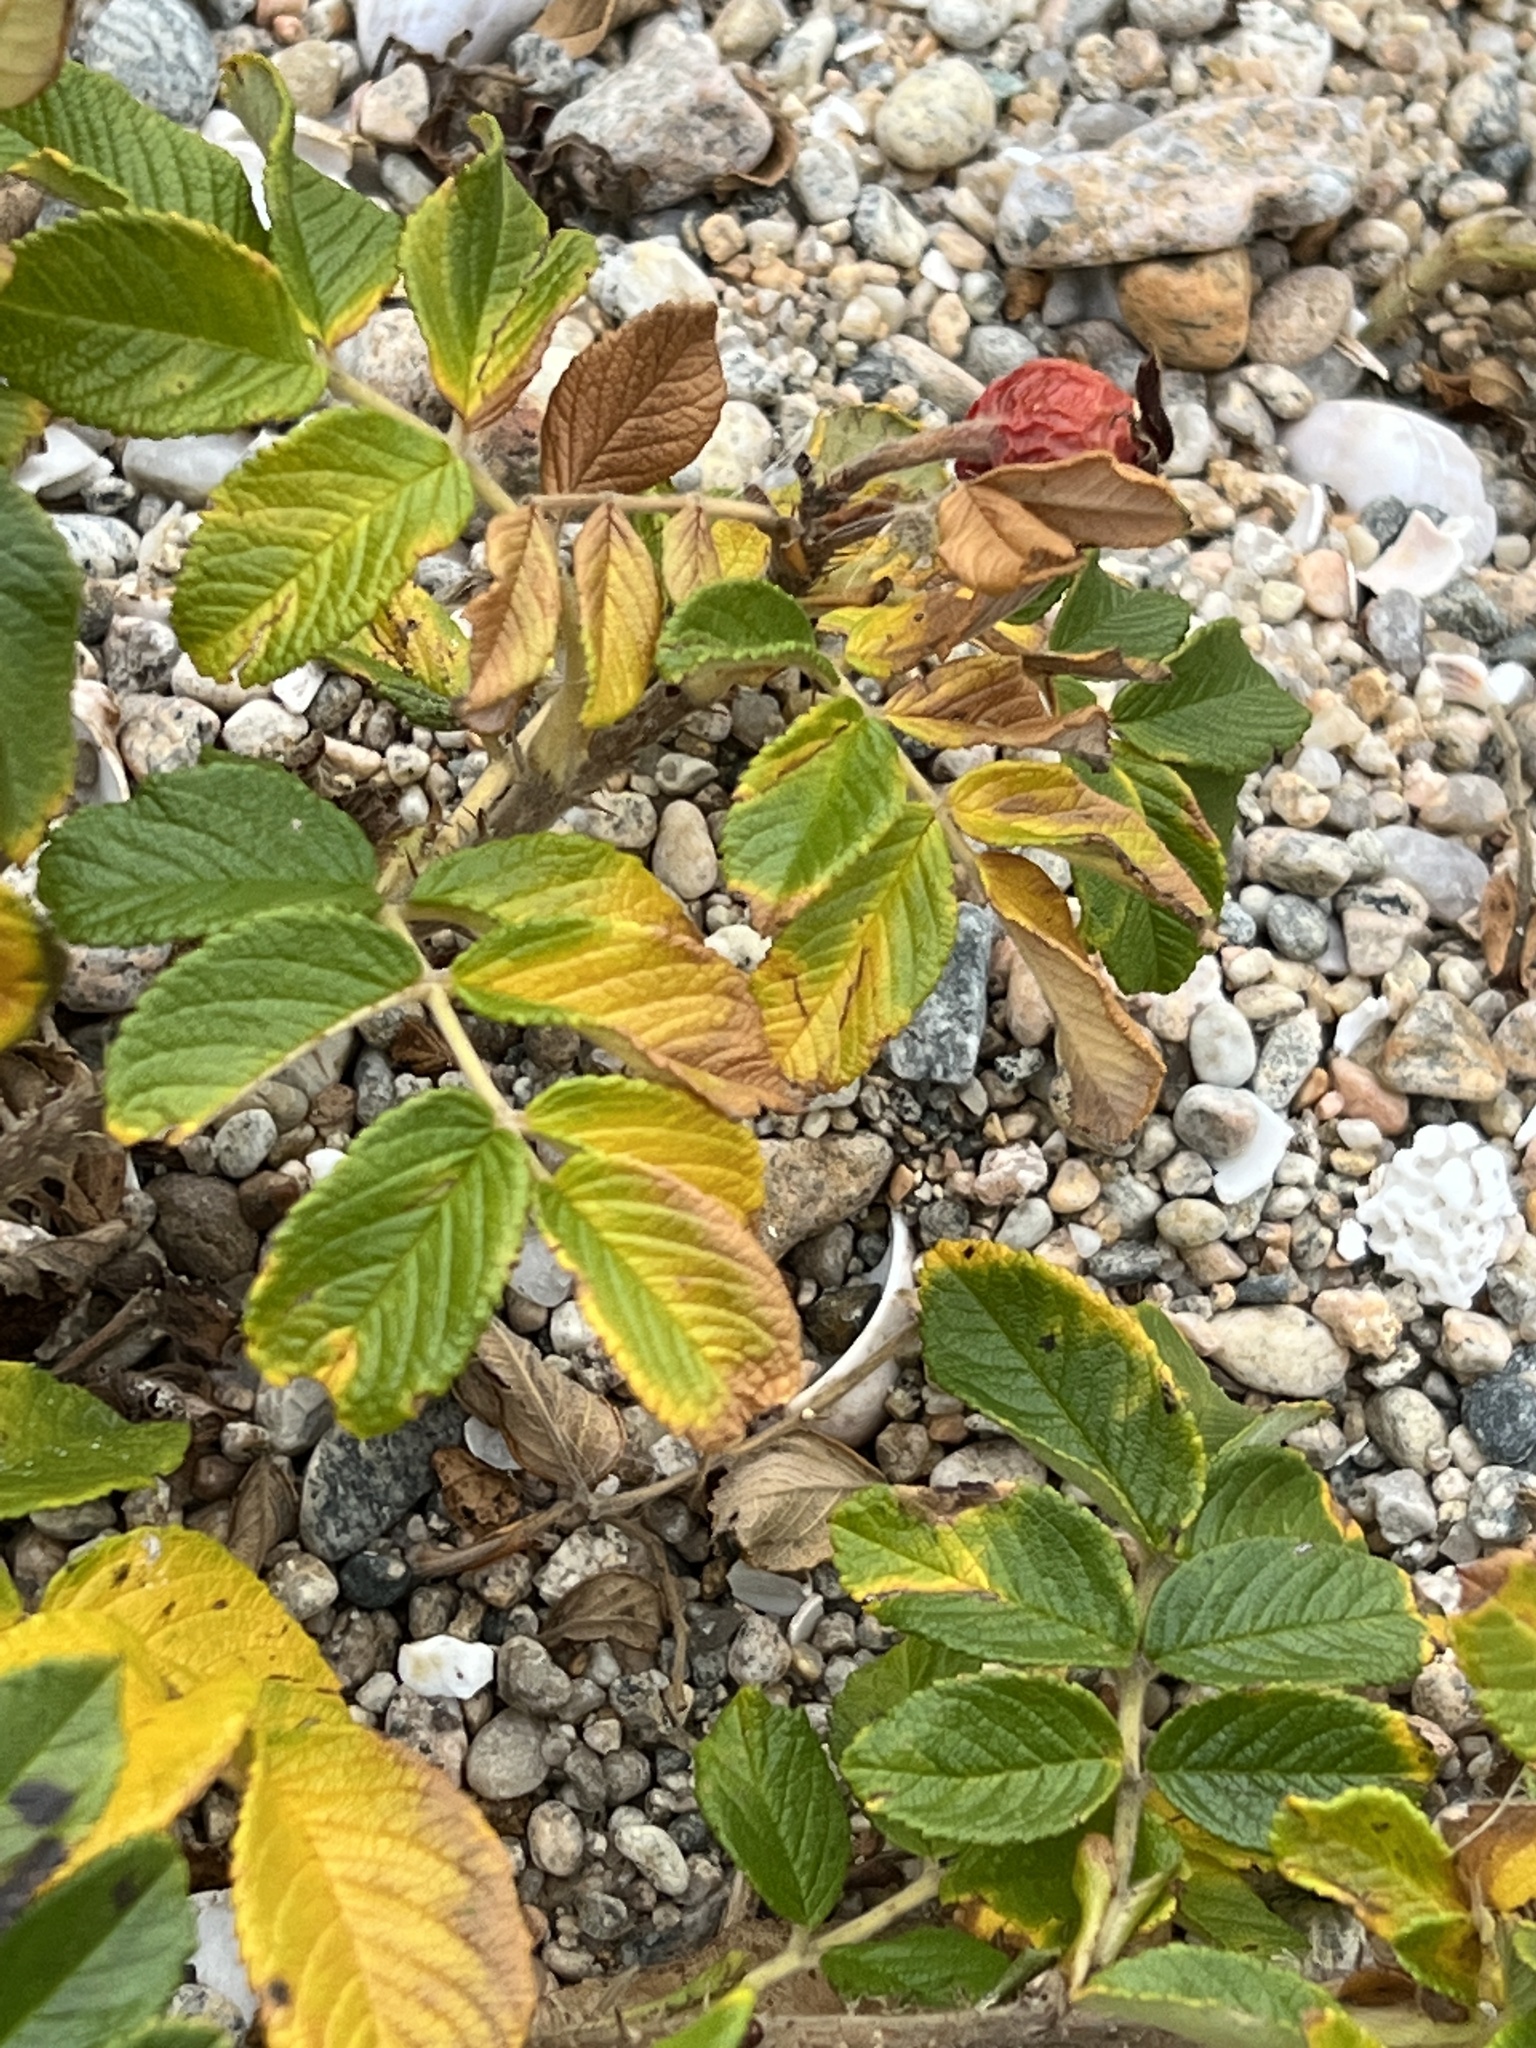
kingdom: Plantae
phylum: Tracheophyta
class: Magnoliopsida
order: Rosales
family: Rosaceae
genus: Rosa
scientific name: Rosa rugosa
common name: Japanese rose
